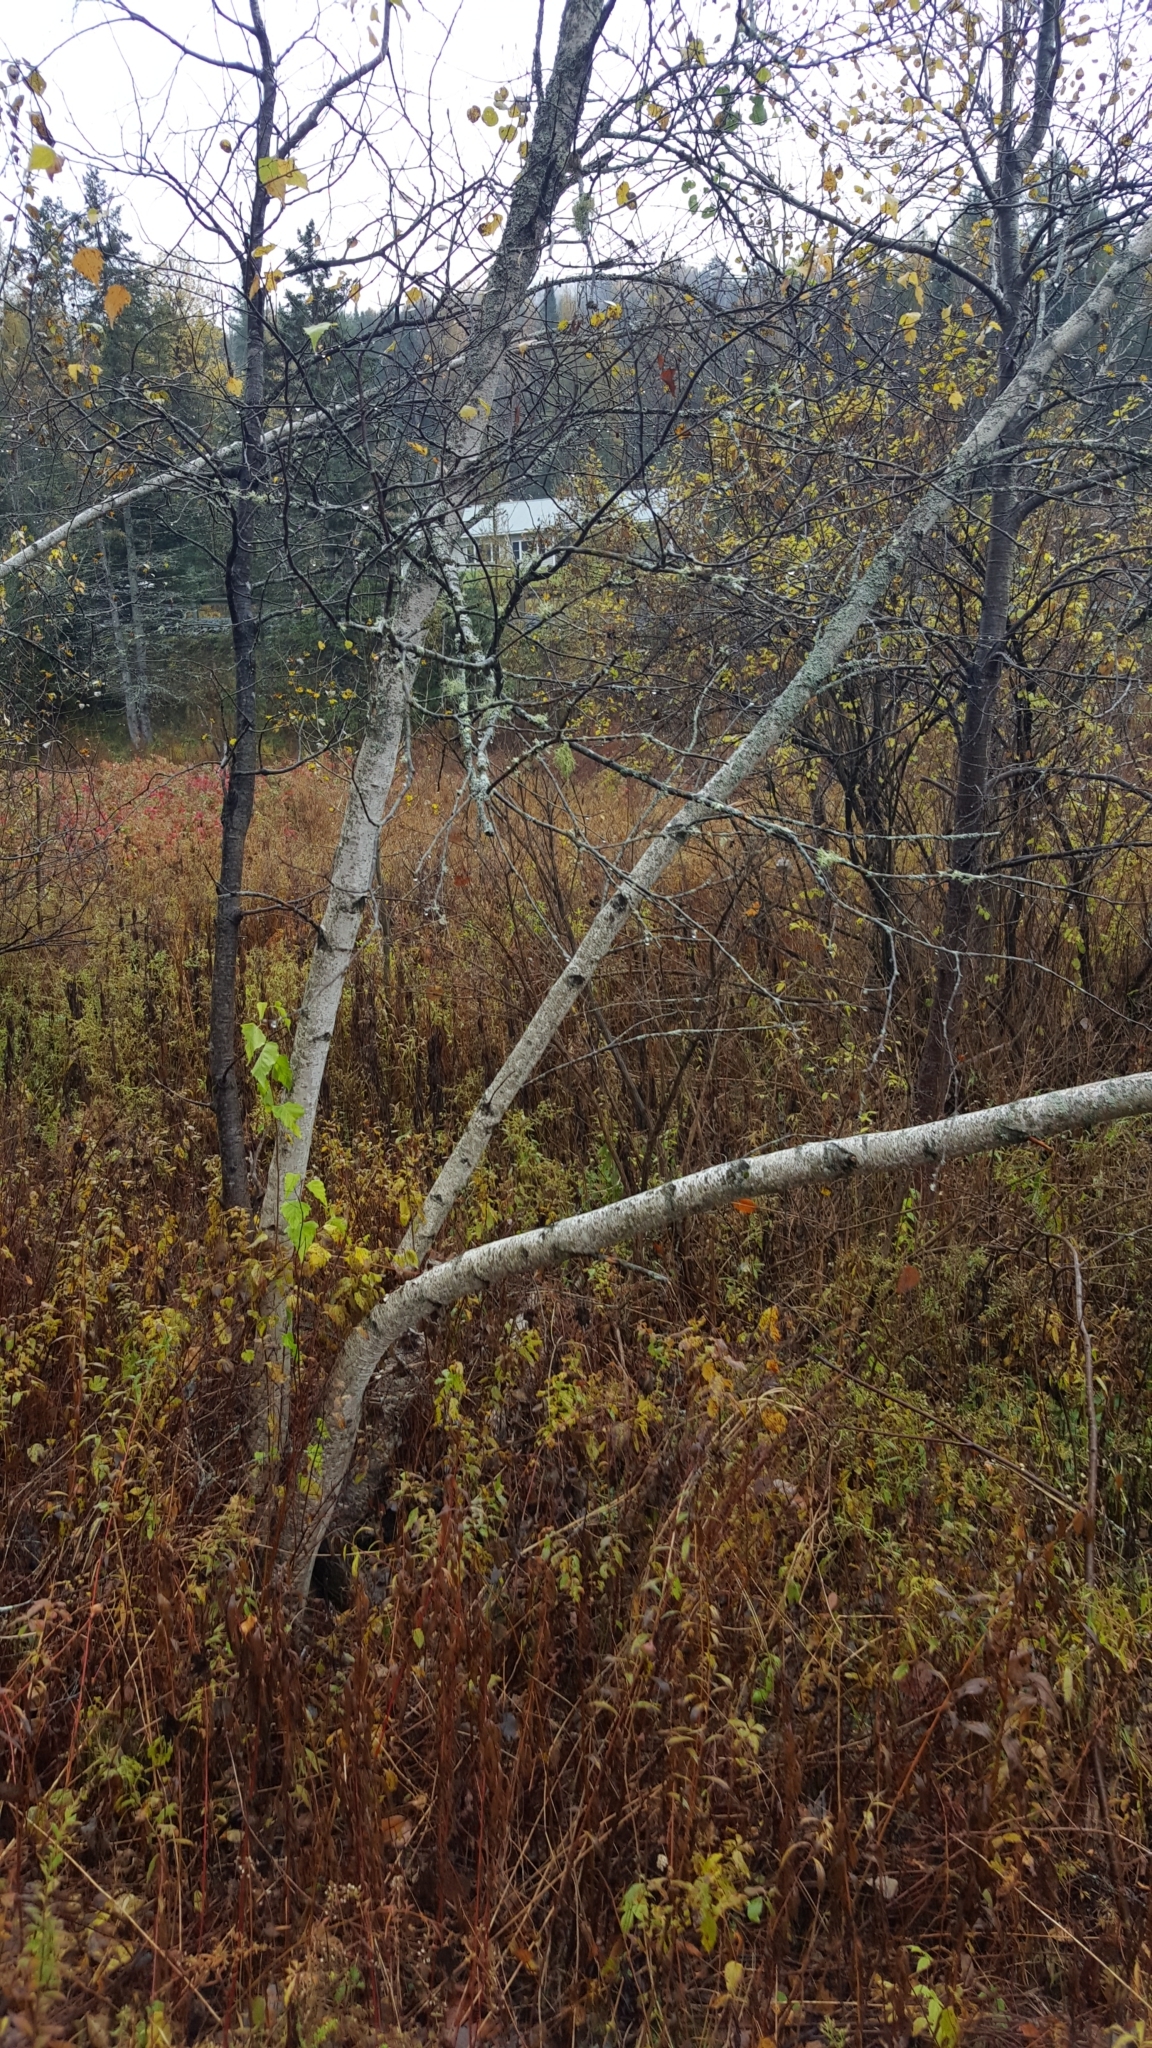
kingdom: Plantae
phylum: Tracheophyta
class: Magnoliopsida
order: Fagales
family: Betulaceae
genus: Betula
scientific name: Betula populifolia
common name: Fire birch
